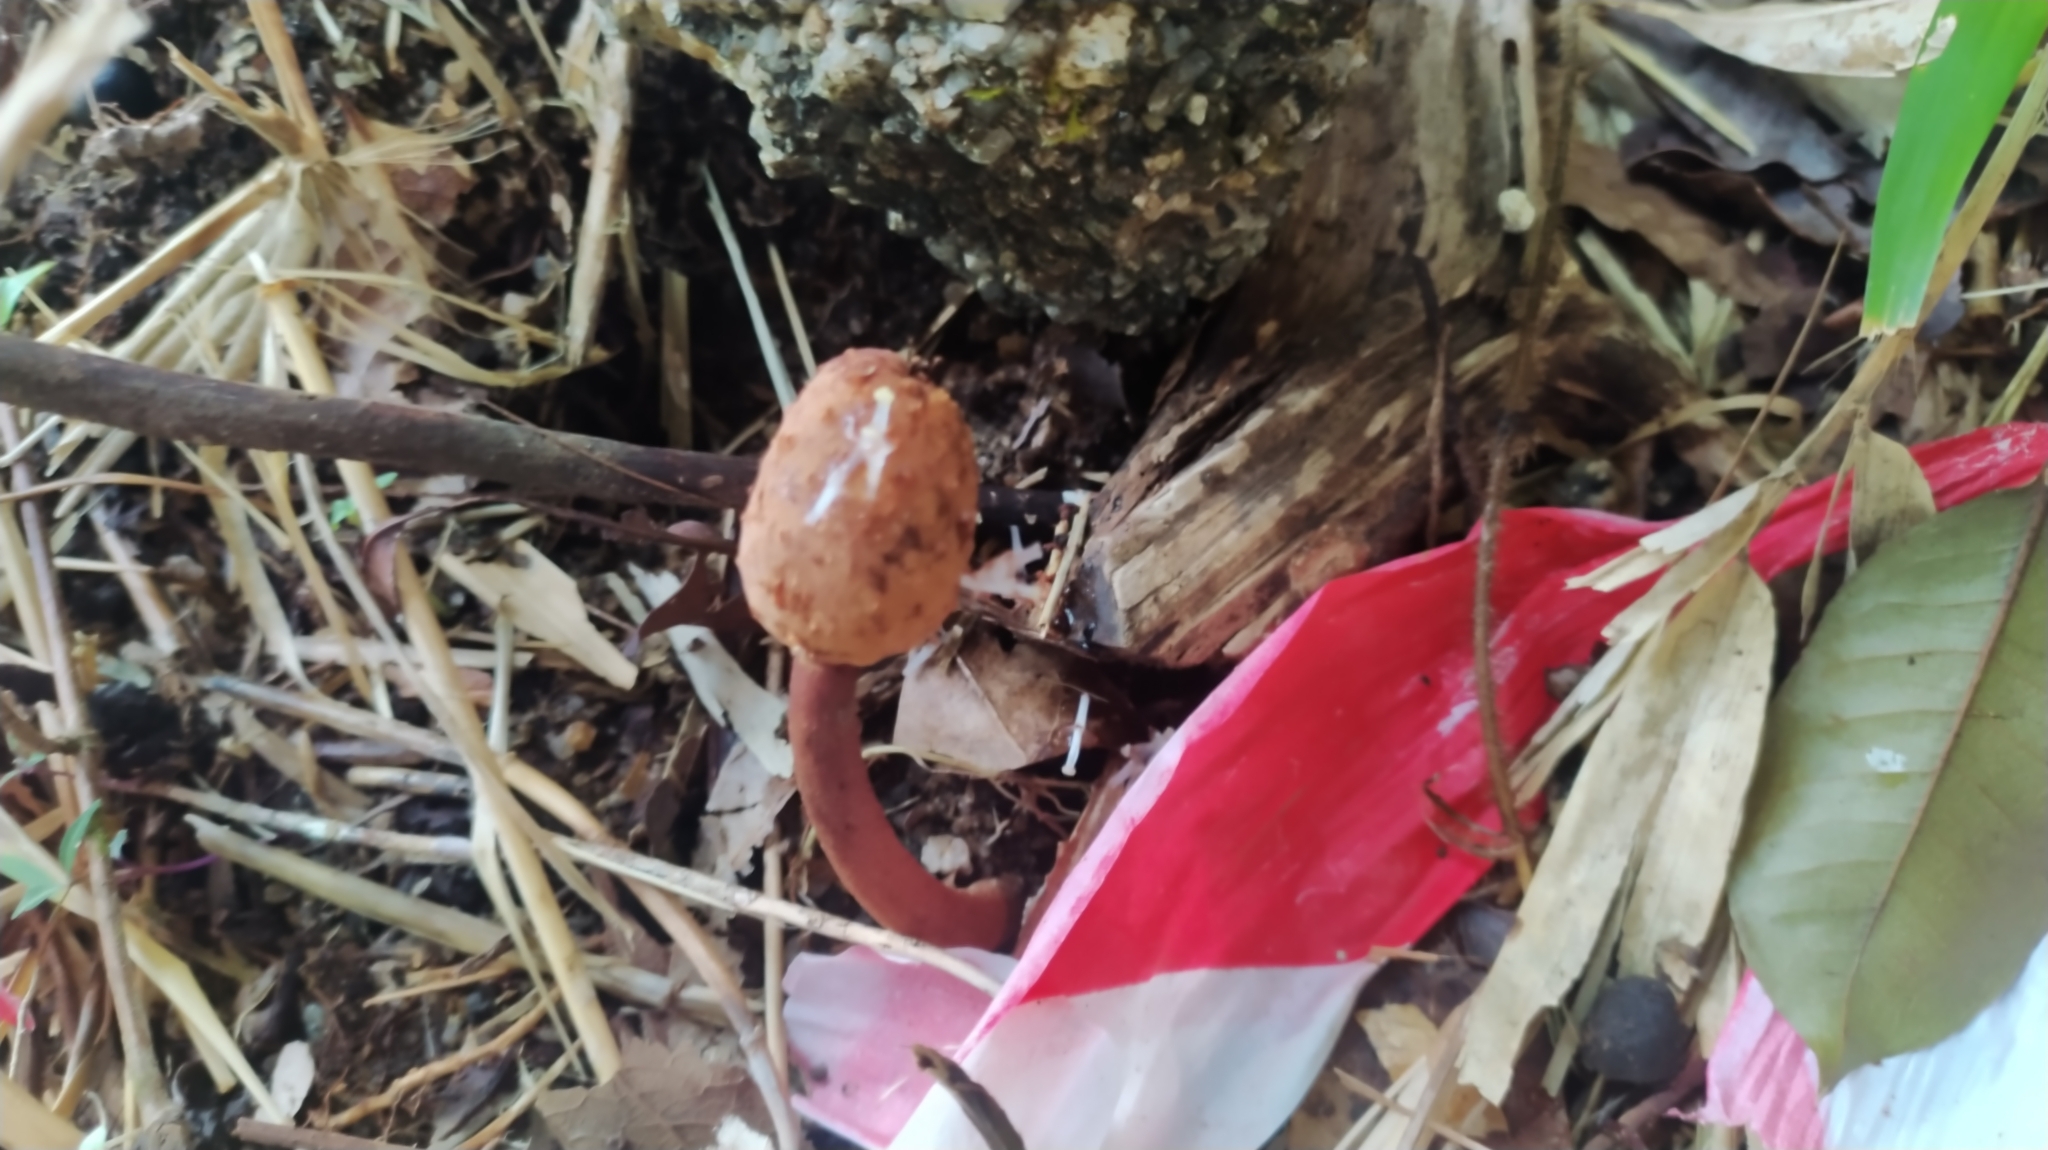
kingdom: Plantae
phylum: Tracheophyta
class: Magnoliopsida
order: Santalales
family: Balanophoraceae
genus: Helosis
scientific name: Helosis cayennensis
